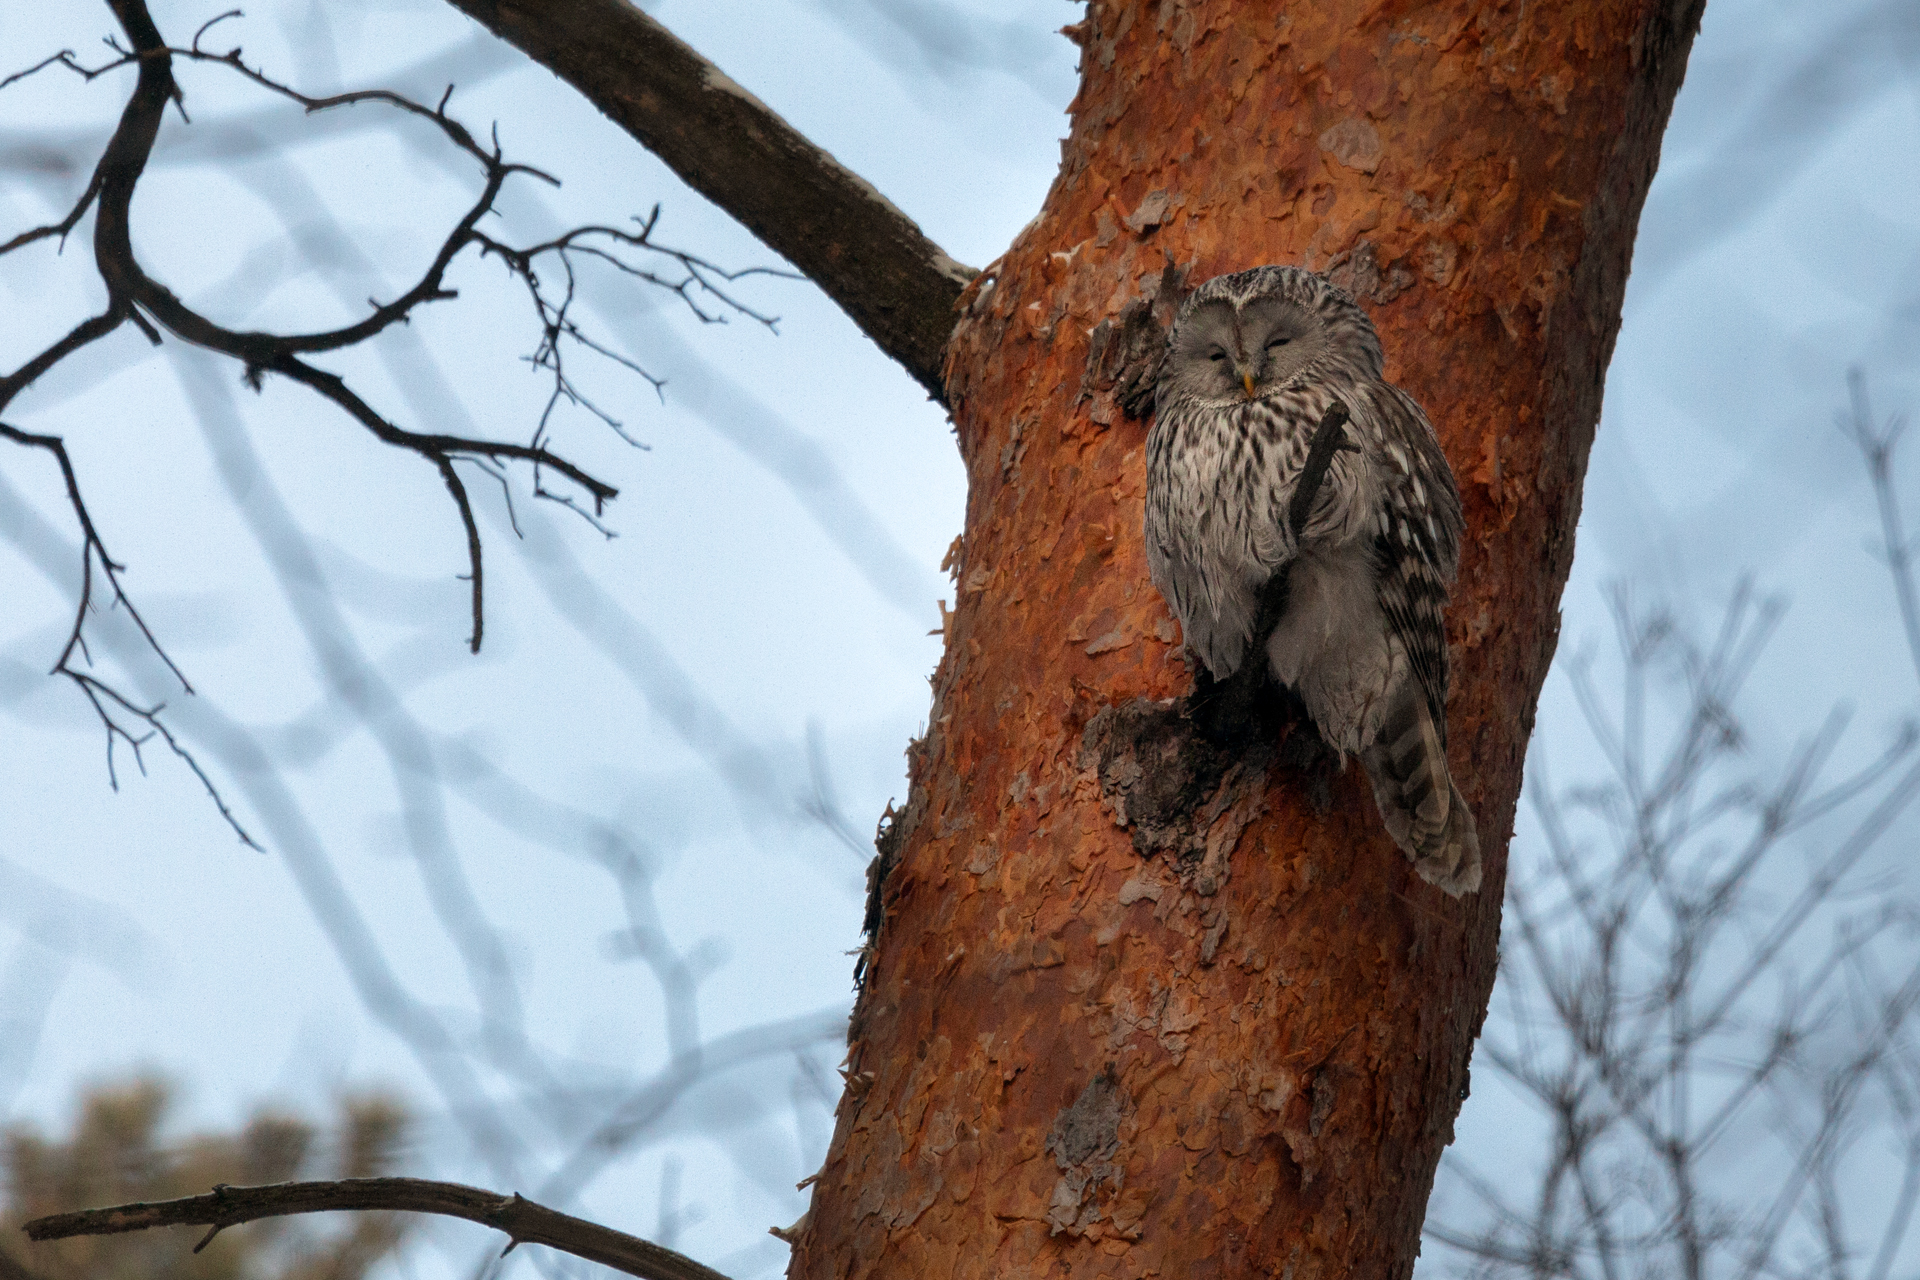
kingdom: Animalia
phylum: Chordata
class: Aves
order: Strigiformes
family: Strigidae
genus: Strix
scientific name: Strix uralensis
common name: Ural owl
